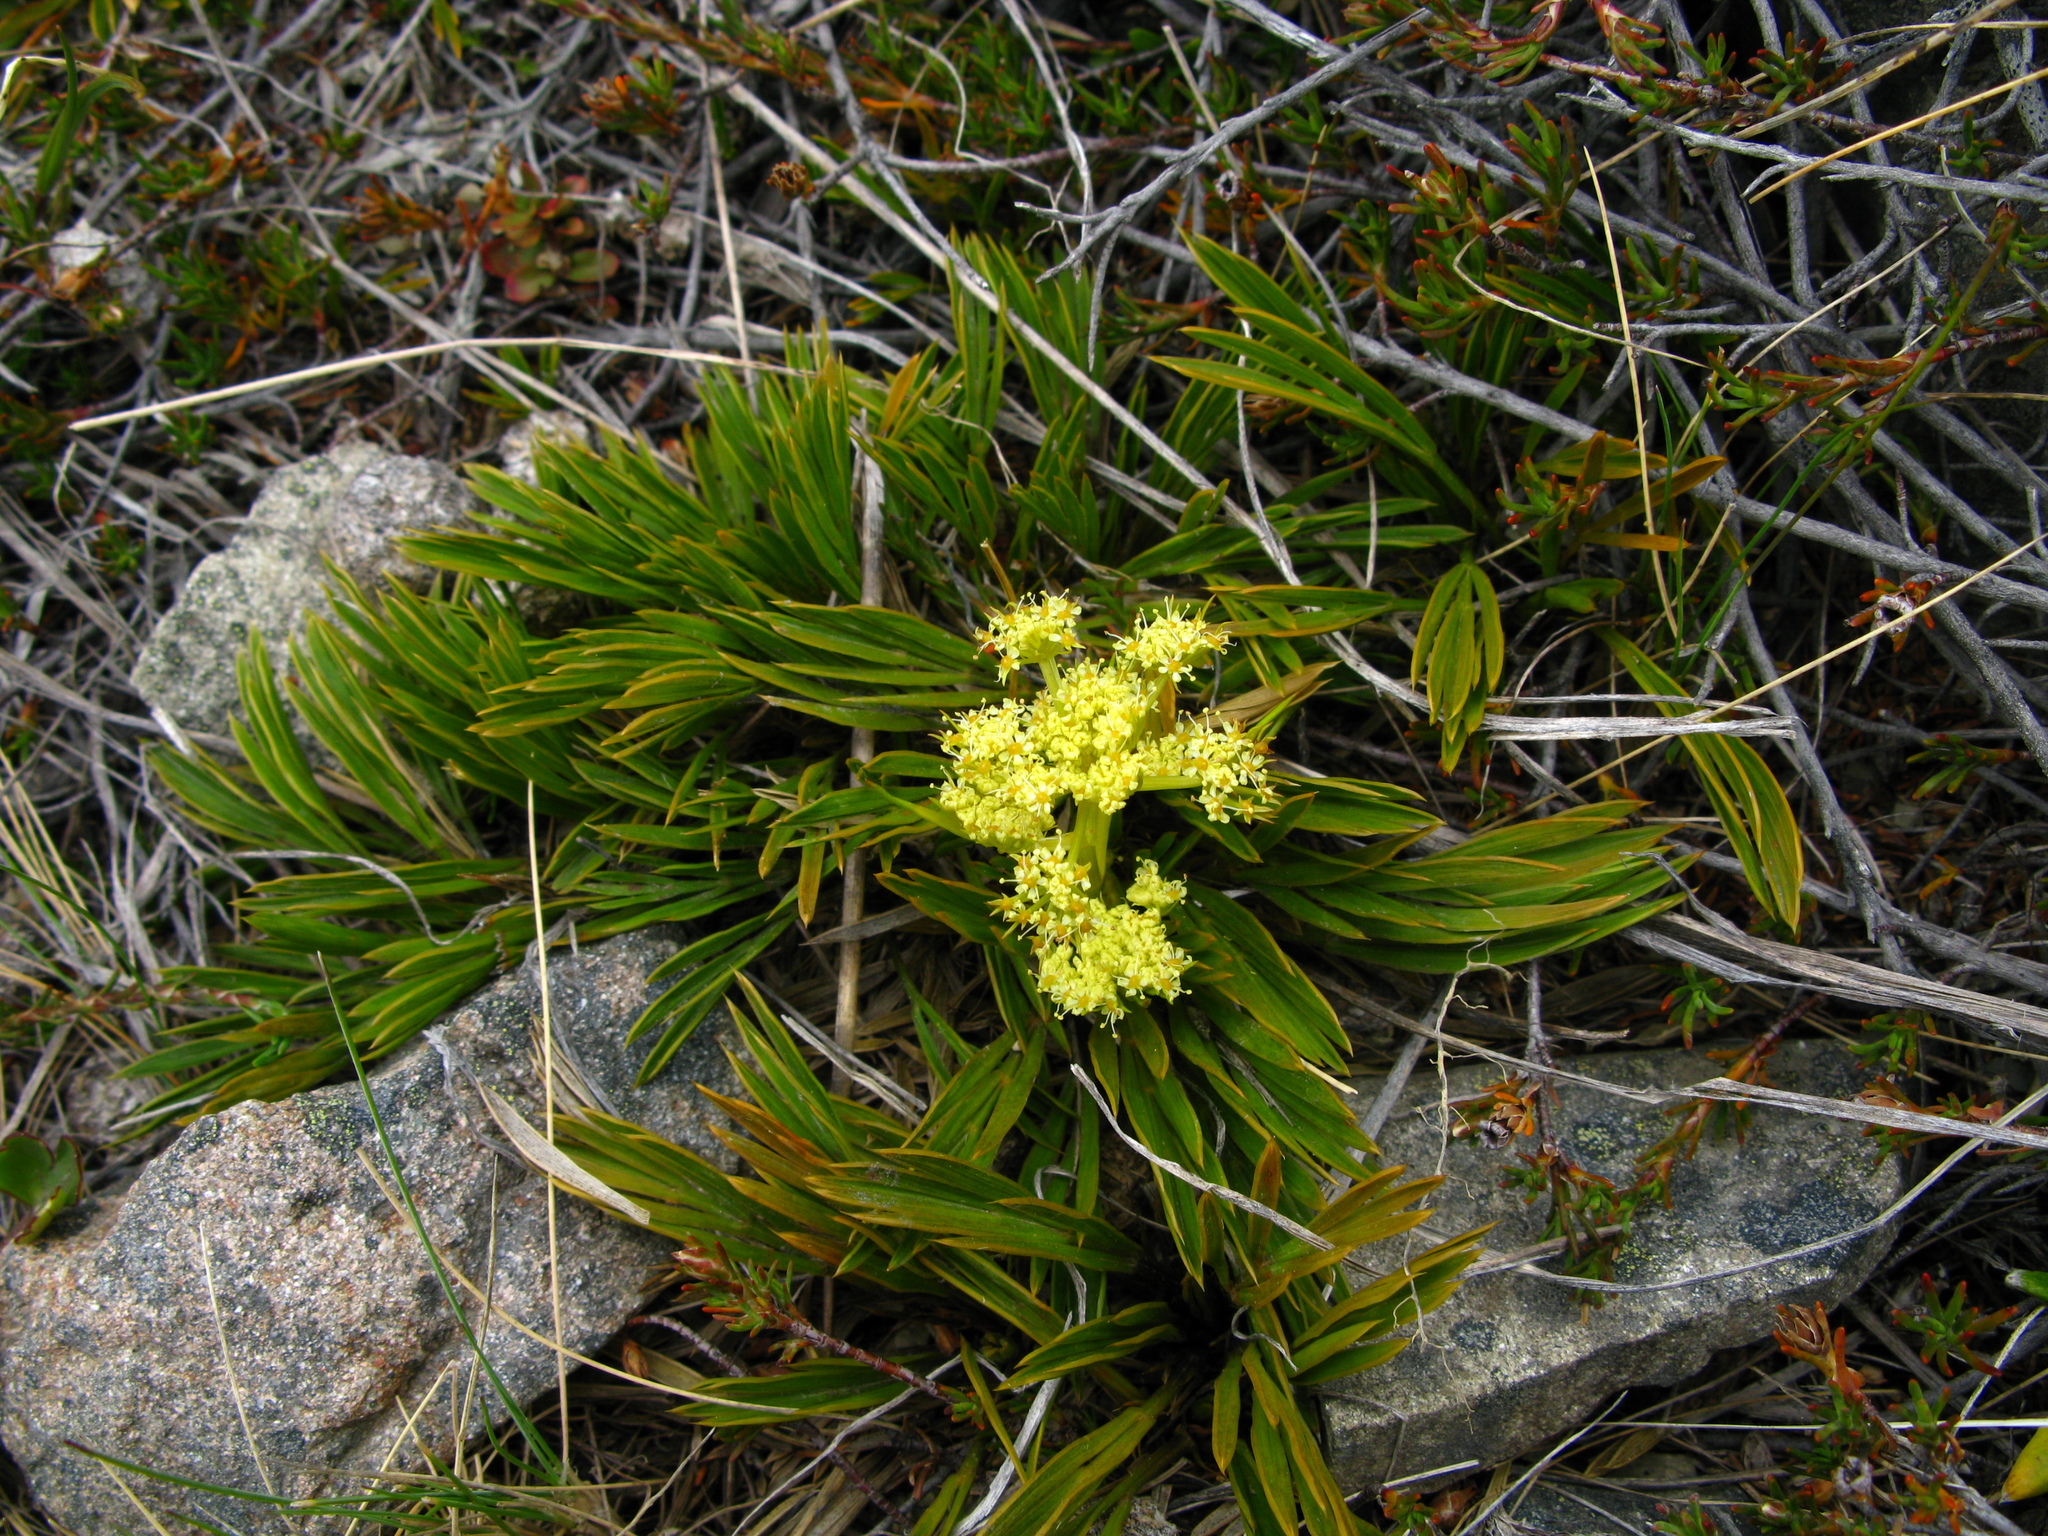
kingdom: Plantae
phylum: Tracheophyta
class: Magnoliopsida
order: Apiales
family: Apiaceae
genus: Aciphylla
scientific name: Aciphylla monroi
